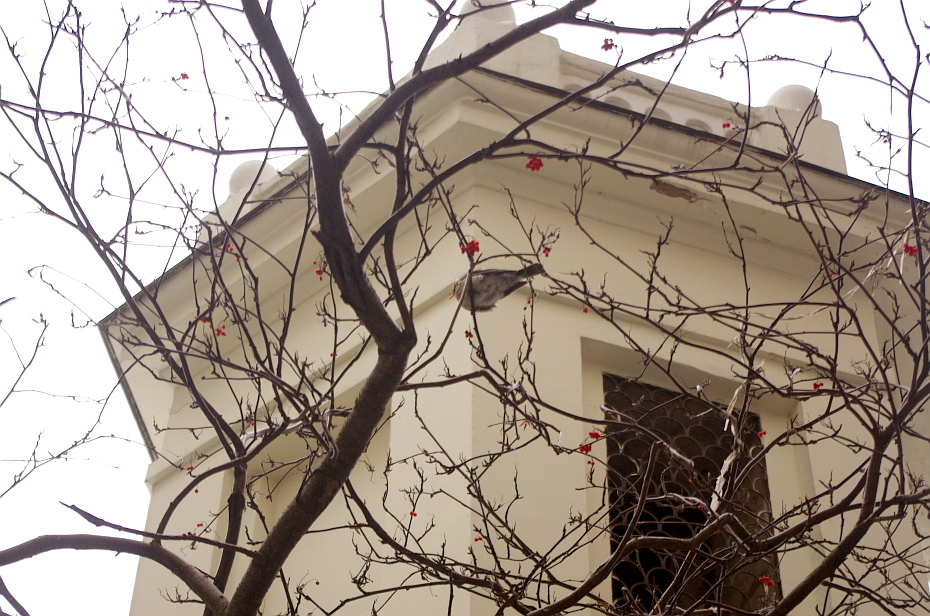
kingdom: Animalia
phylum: Chordata
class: Aves
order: Passeriformes
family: Turdidae
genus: Turdus
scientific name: Turdus pilaris
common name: Fieldfare
